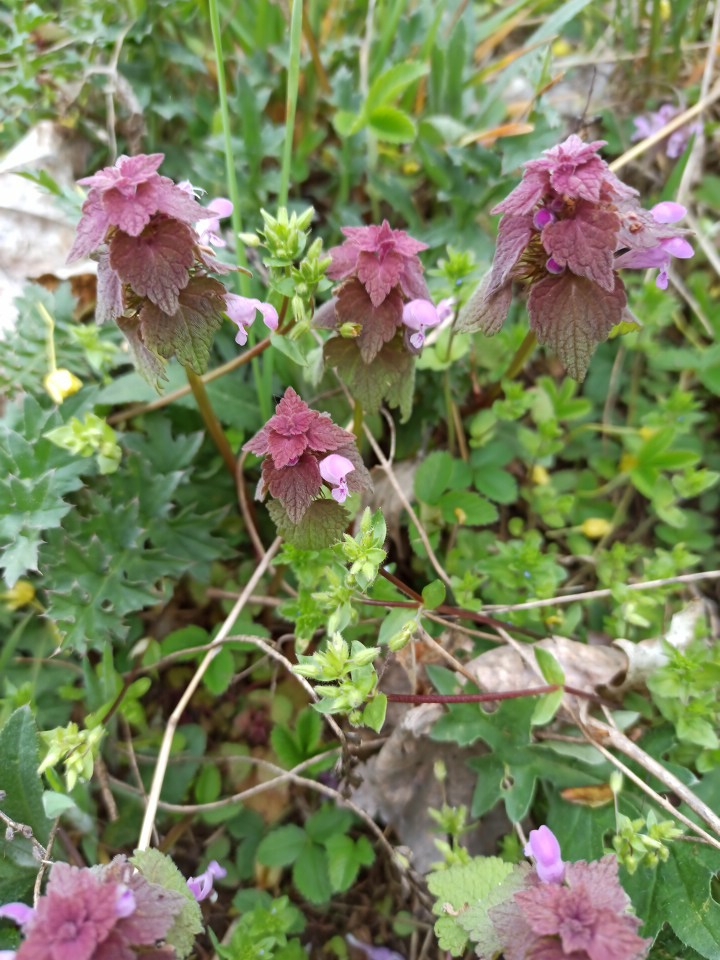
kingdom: Plantae
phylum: Tracheophyta
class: Magnoliopsida
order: Lamiales
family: Lamiaceae
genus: Lamium
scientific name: Lamium purpureum
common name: Red dead-nettle
